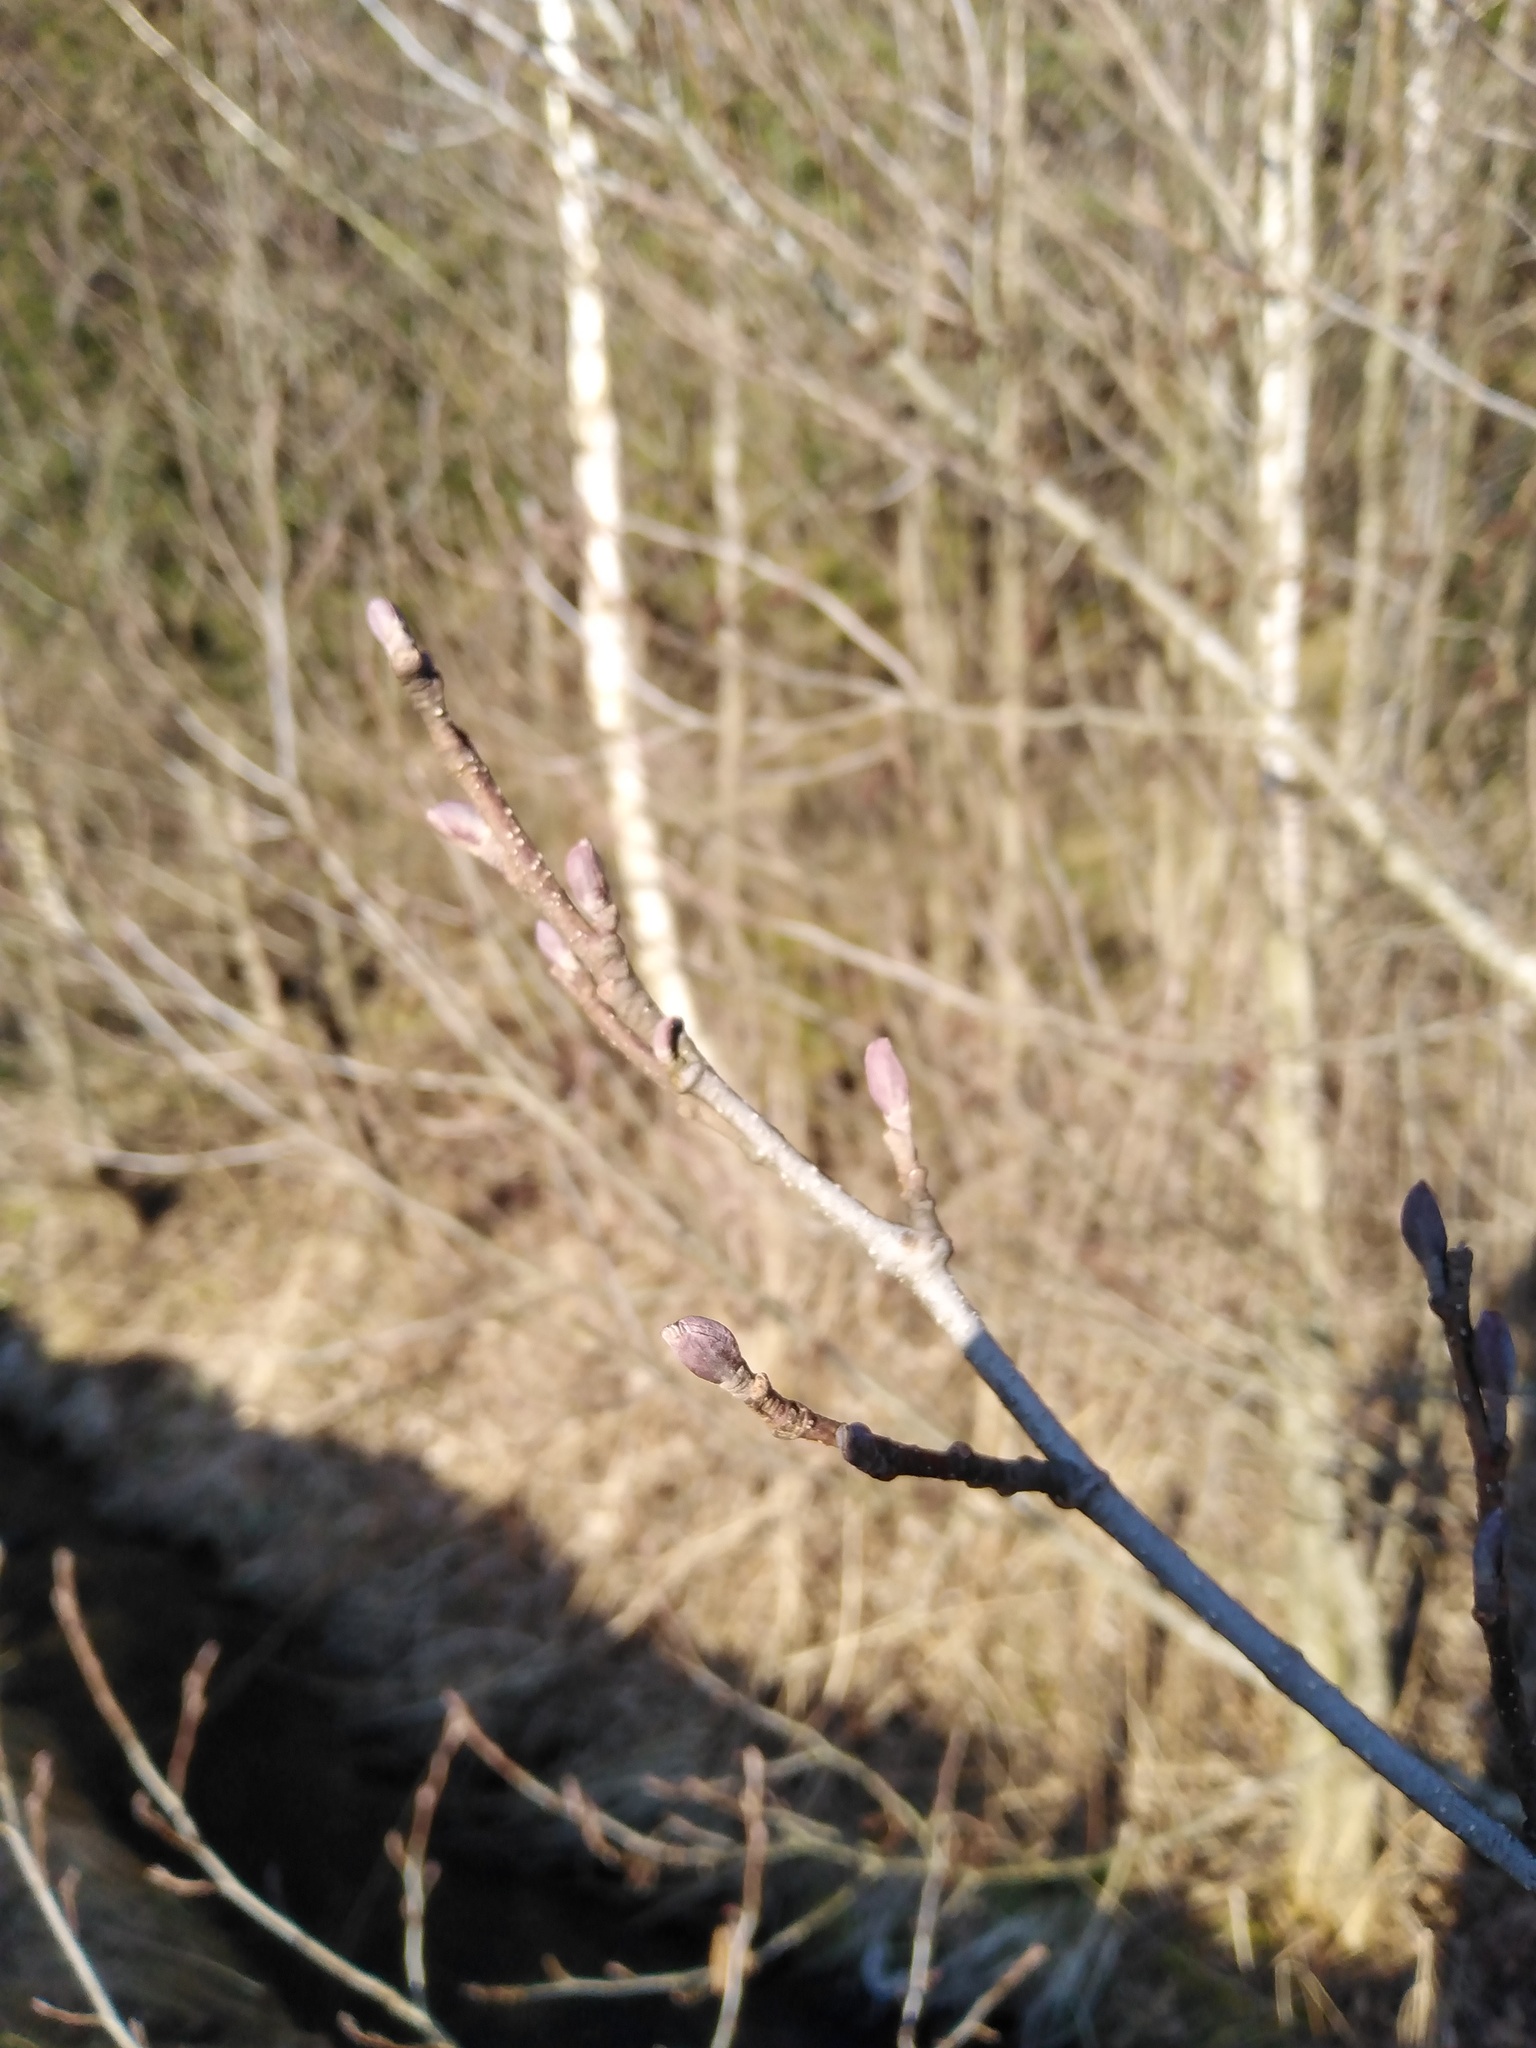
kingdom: Plantae
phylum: Tracheophyta
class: Magnoliopsida
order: Fagales
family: Betulaceae
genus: Alnus
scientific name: Alnus glutinosa
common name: Black alder
